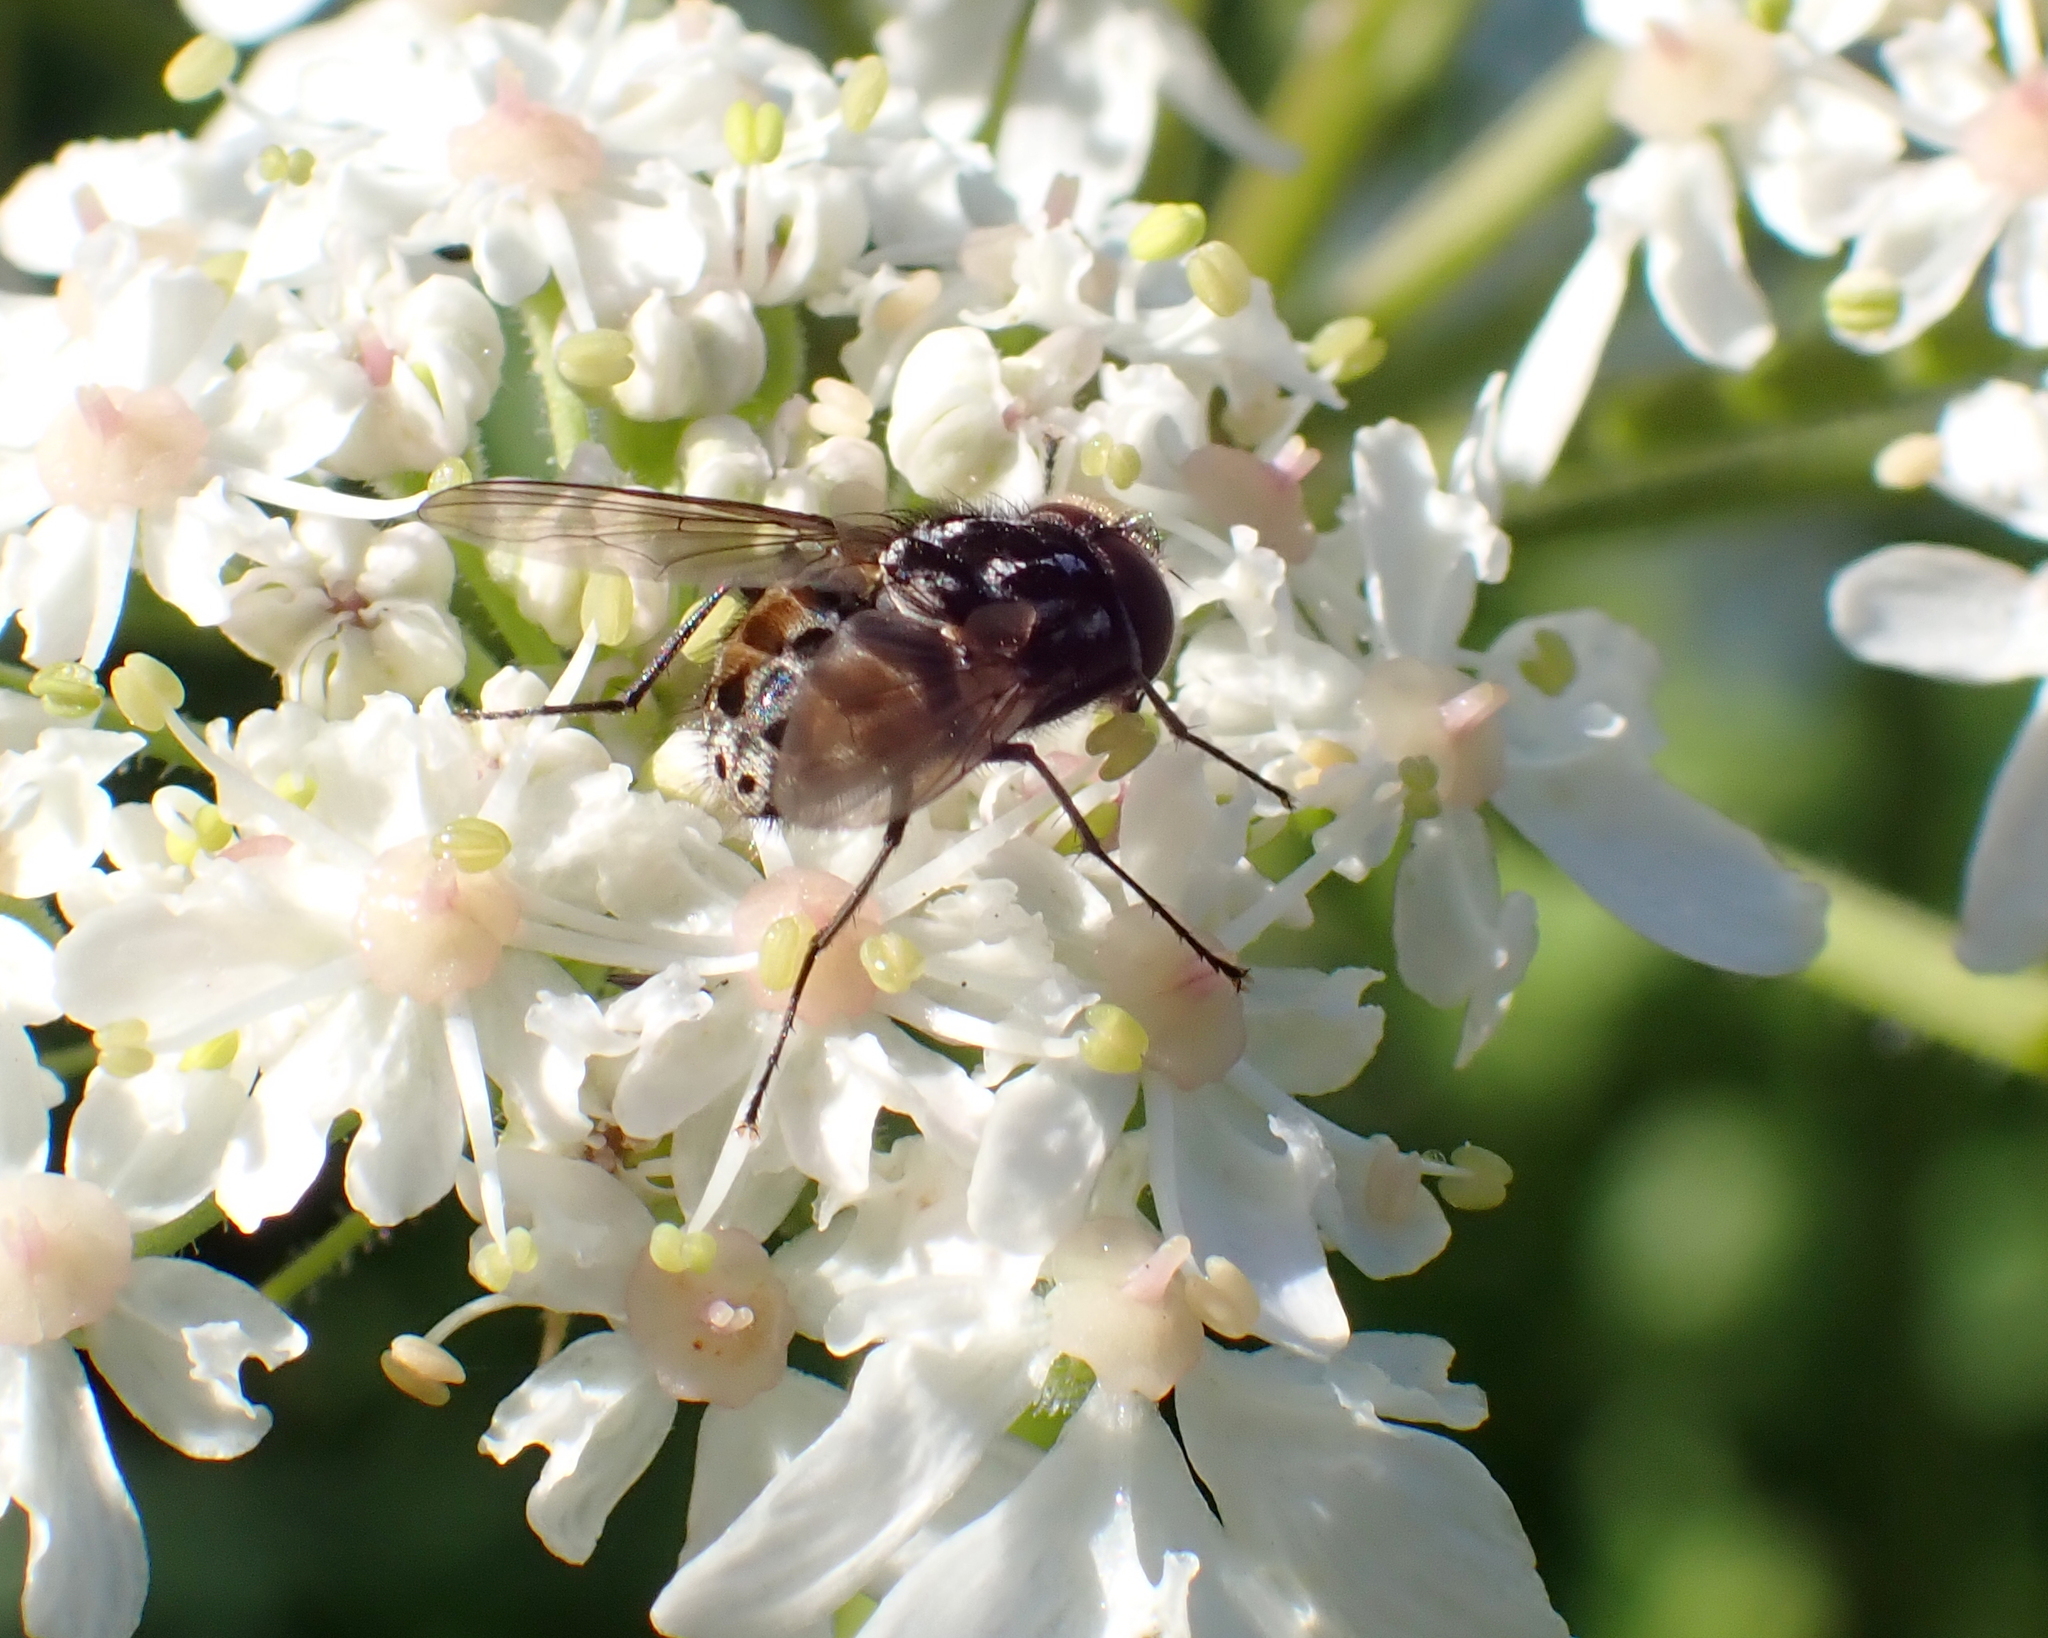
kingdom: Animalia
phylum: Arthropoda
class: Insecta
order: Diptera
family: Muscidae
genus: Graphomya
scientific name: Graphomya maculata
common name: Muscid fly
